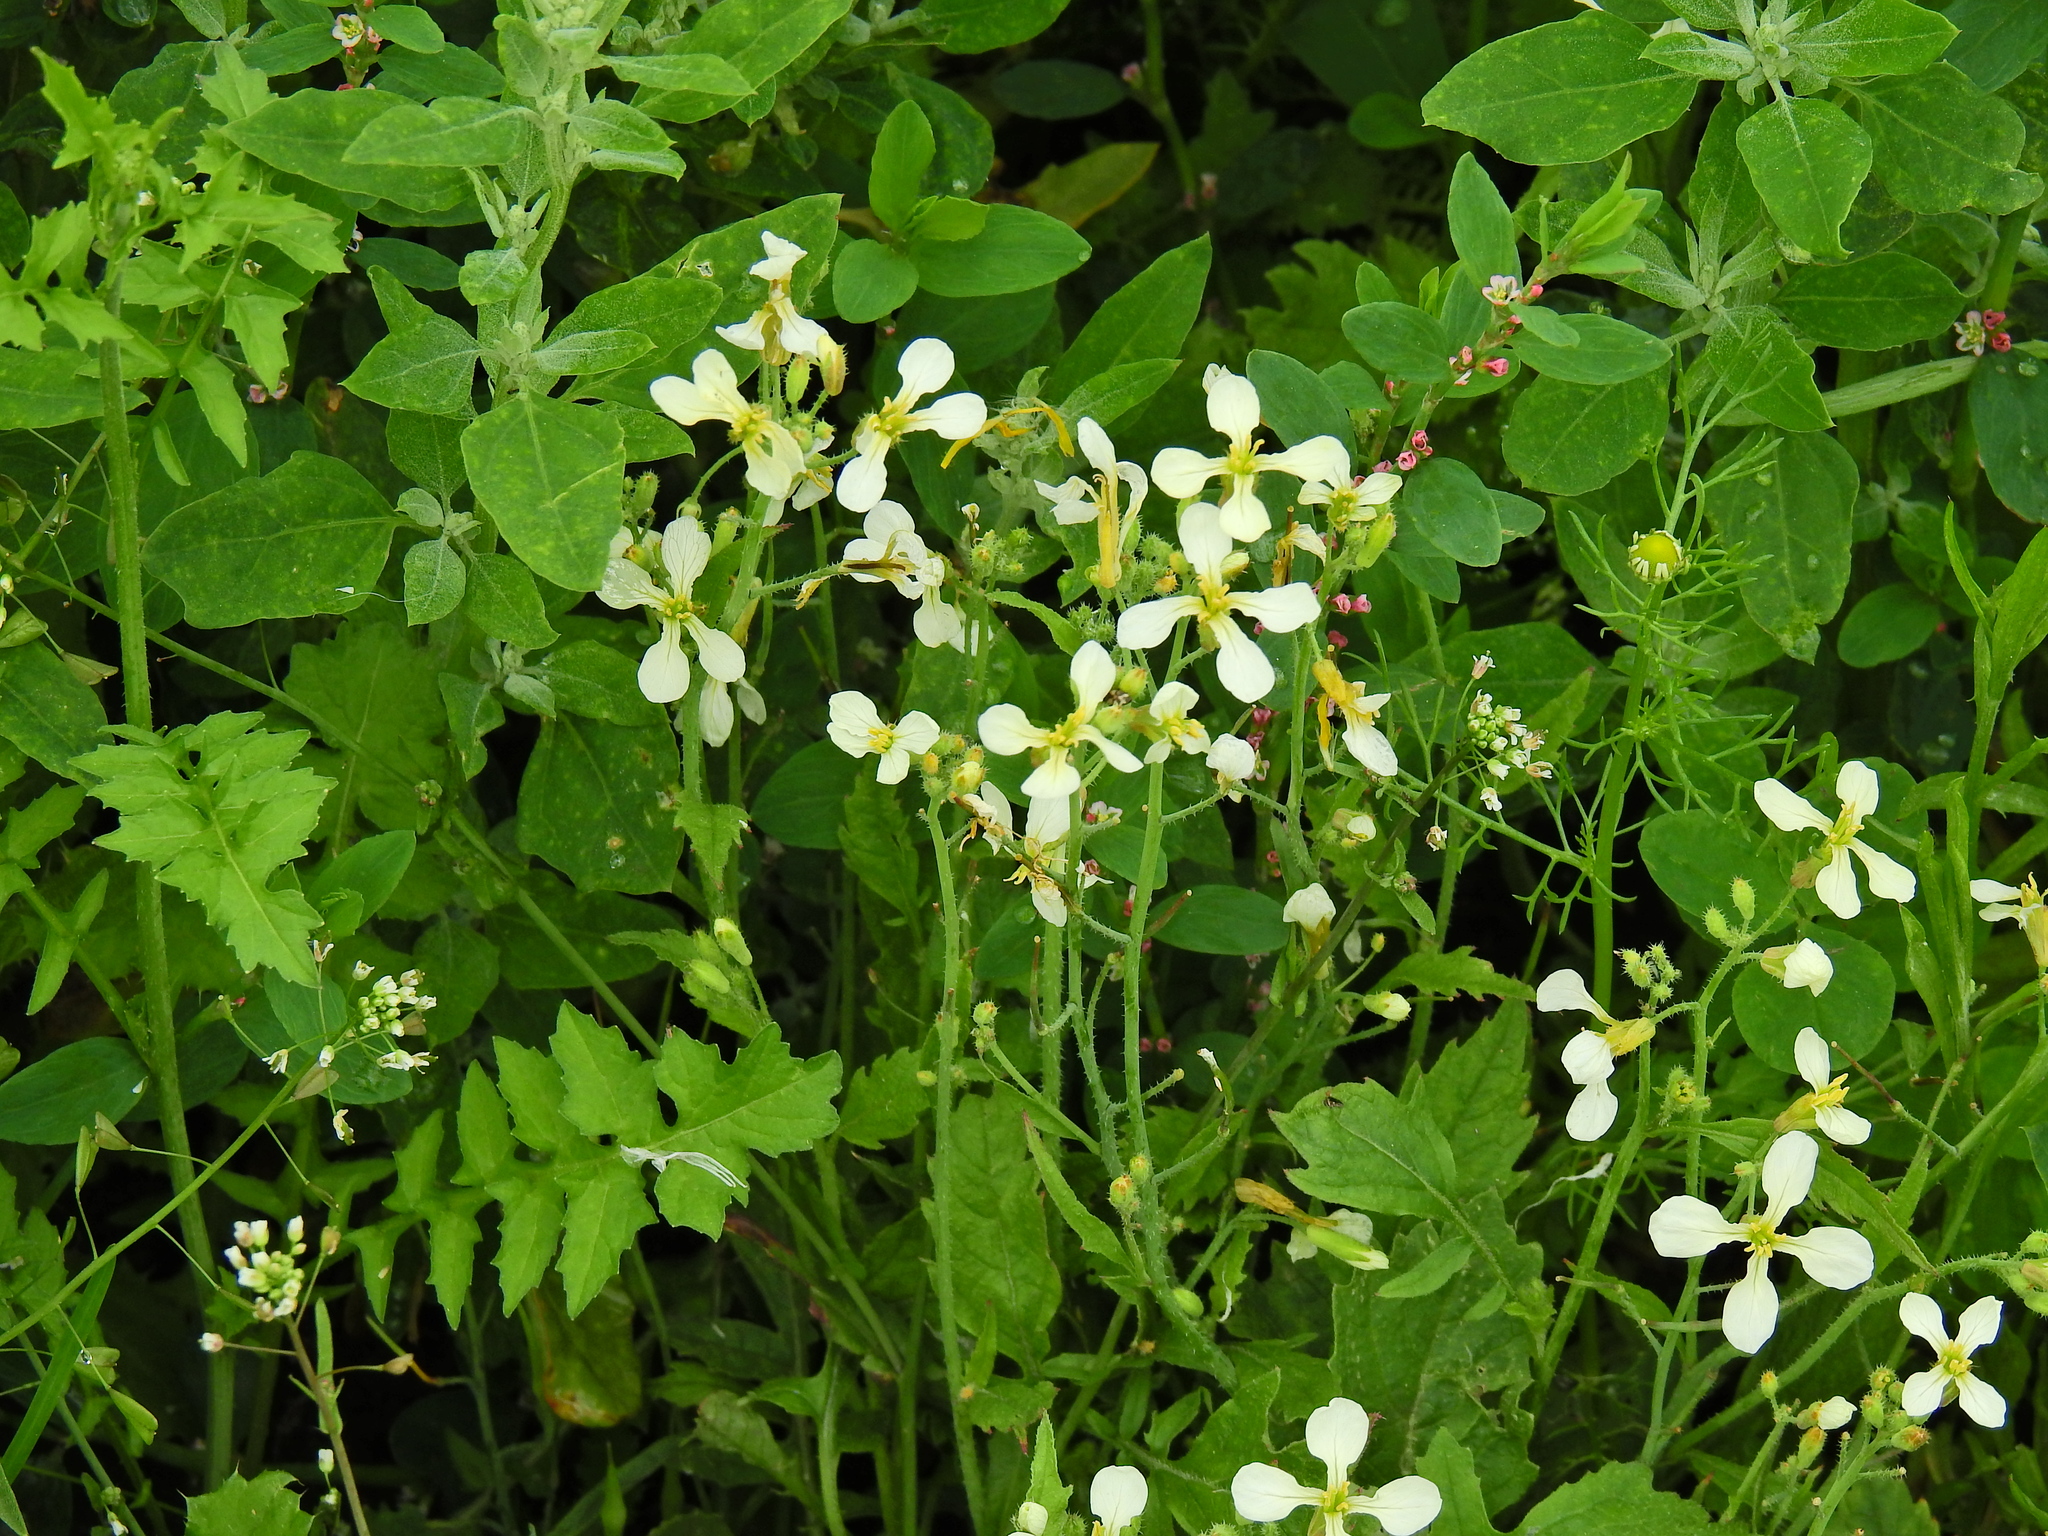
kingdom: Plantae
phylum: Tracheophyta
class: Magnoliopsida
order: Brassicales
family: Brassicaceae
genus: Raphanus
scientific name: Raphanus raphanistrum
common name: Wild radish
